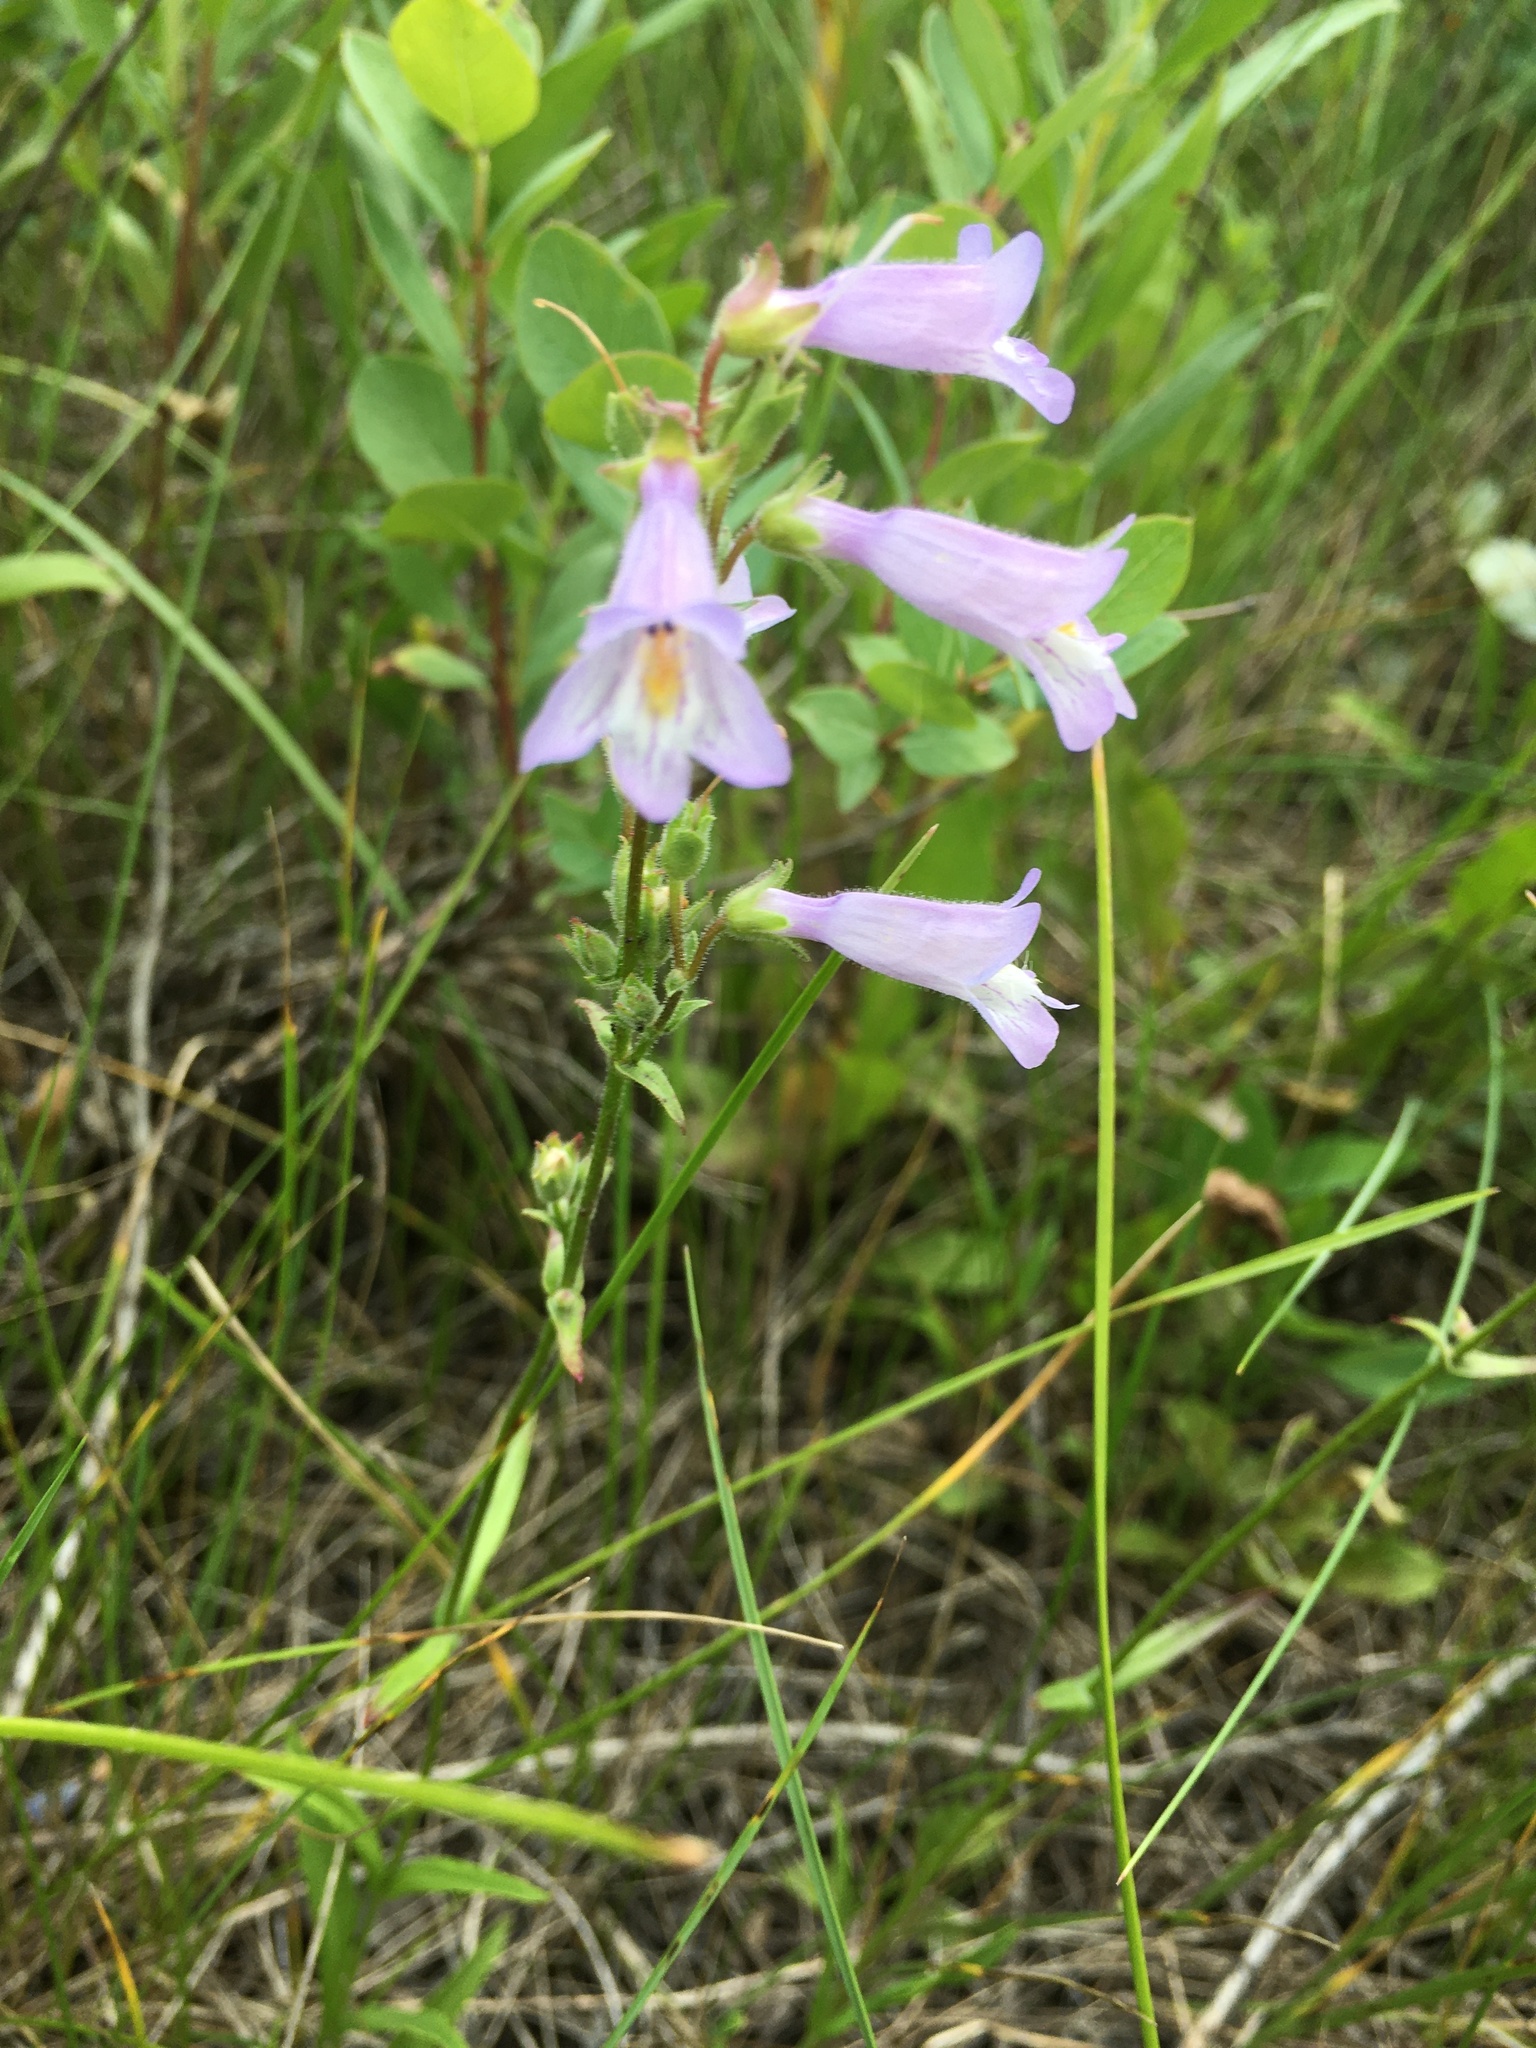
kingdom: Plantae
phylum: Tracheophyta
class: Magnoliopsida
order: Lamiales
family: Plantaginaceae
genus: Penstemon
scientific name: Penstemon gracilis
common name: Slender beardtongue
